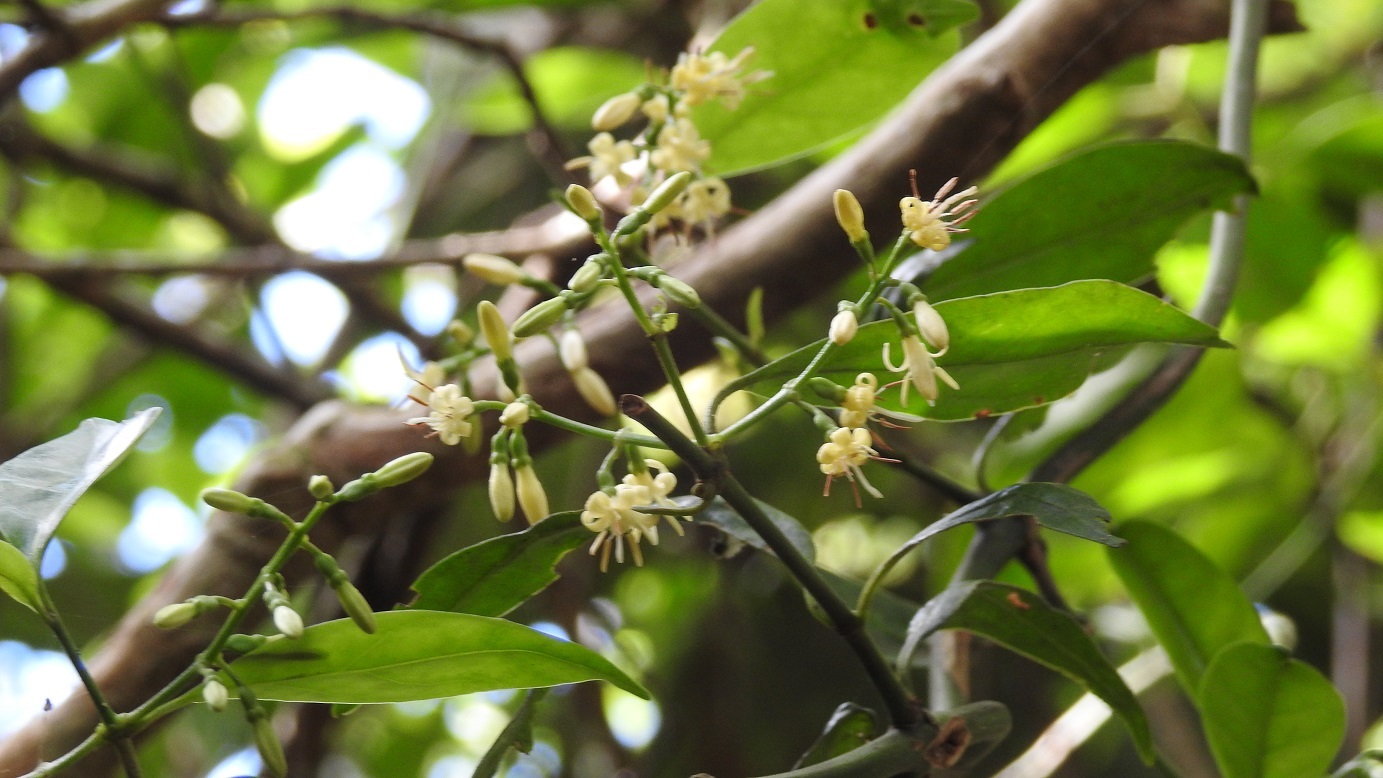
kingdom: Plantae
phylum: Tracheophyta
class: Magnoliopsida
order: Gentianales
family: Rubiaceae
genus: Chiococca
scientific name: Chiococca phaenostemon
